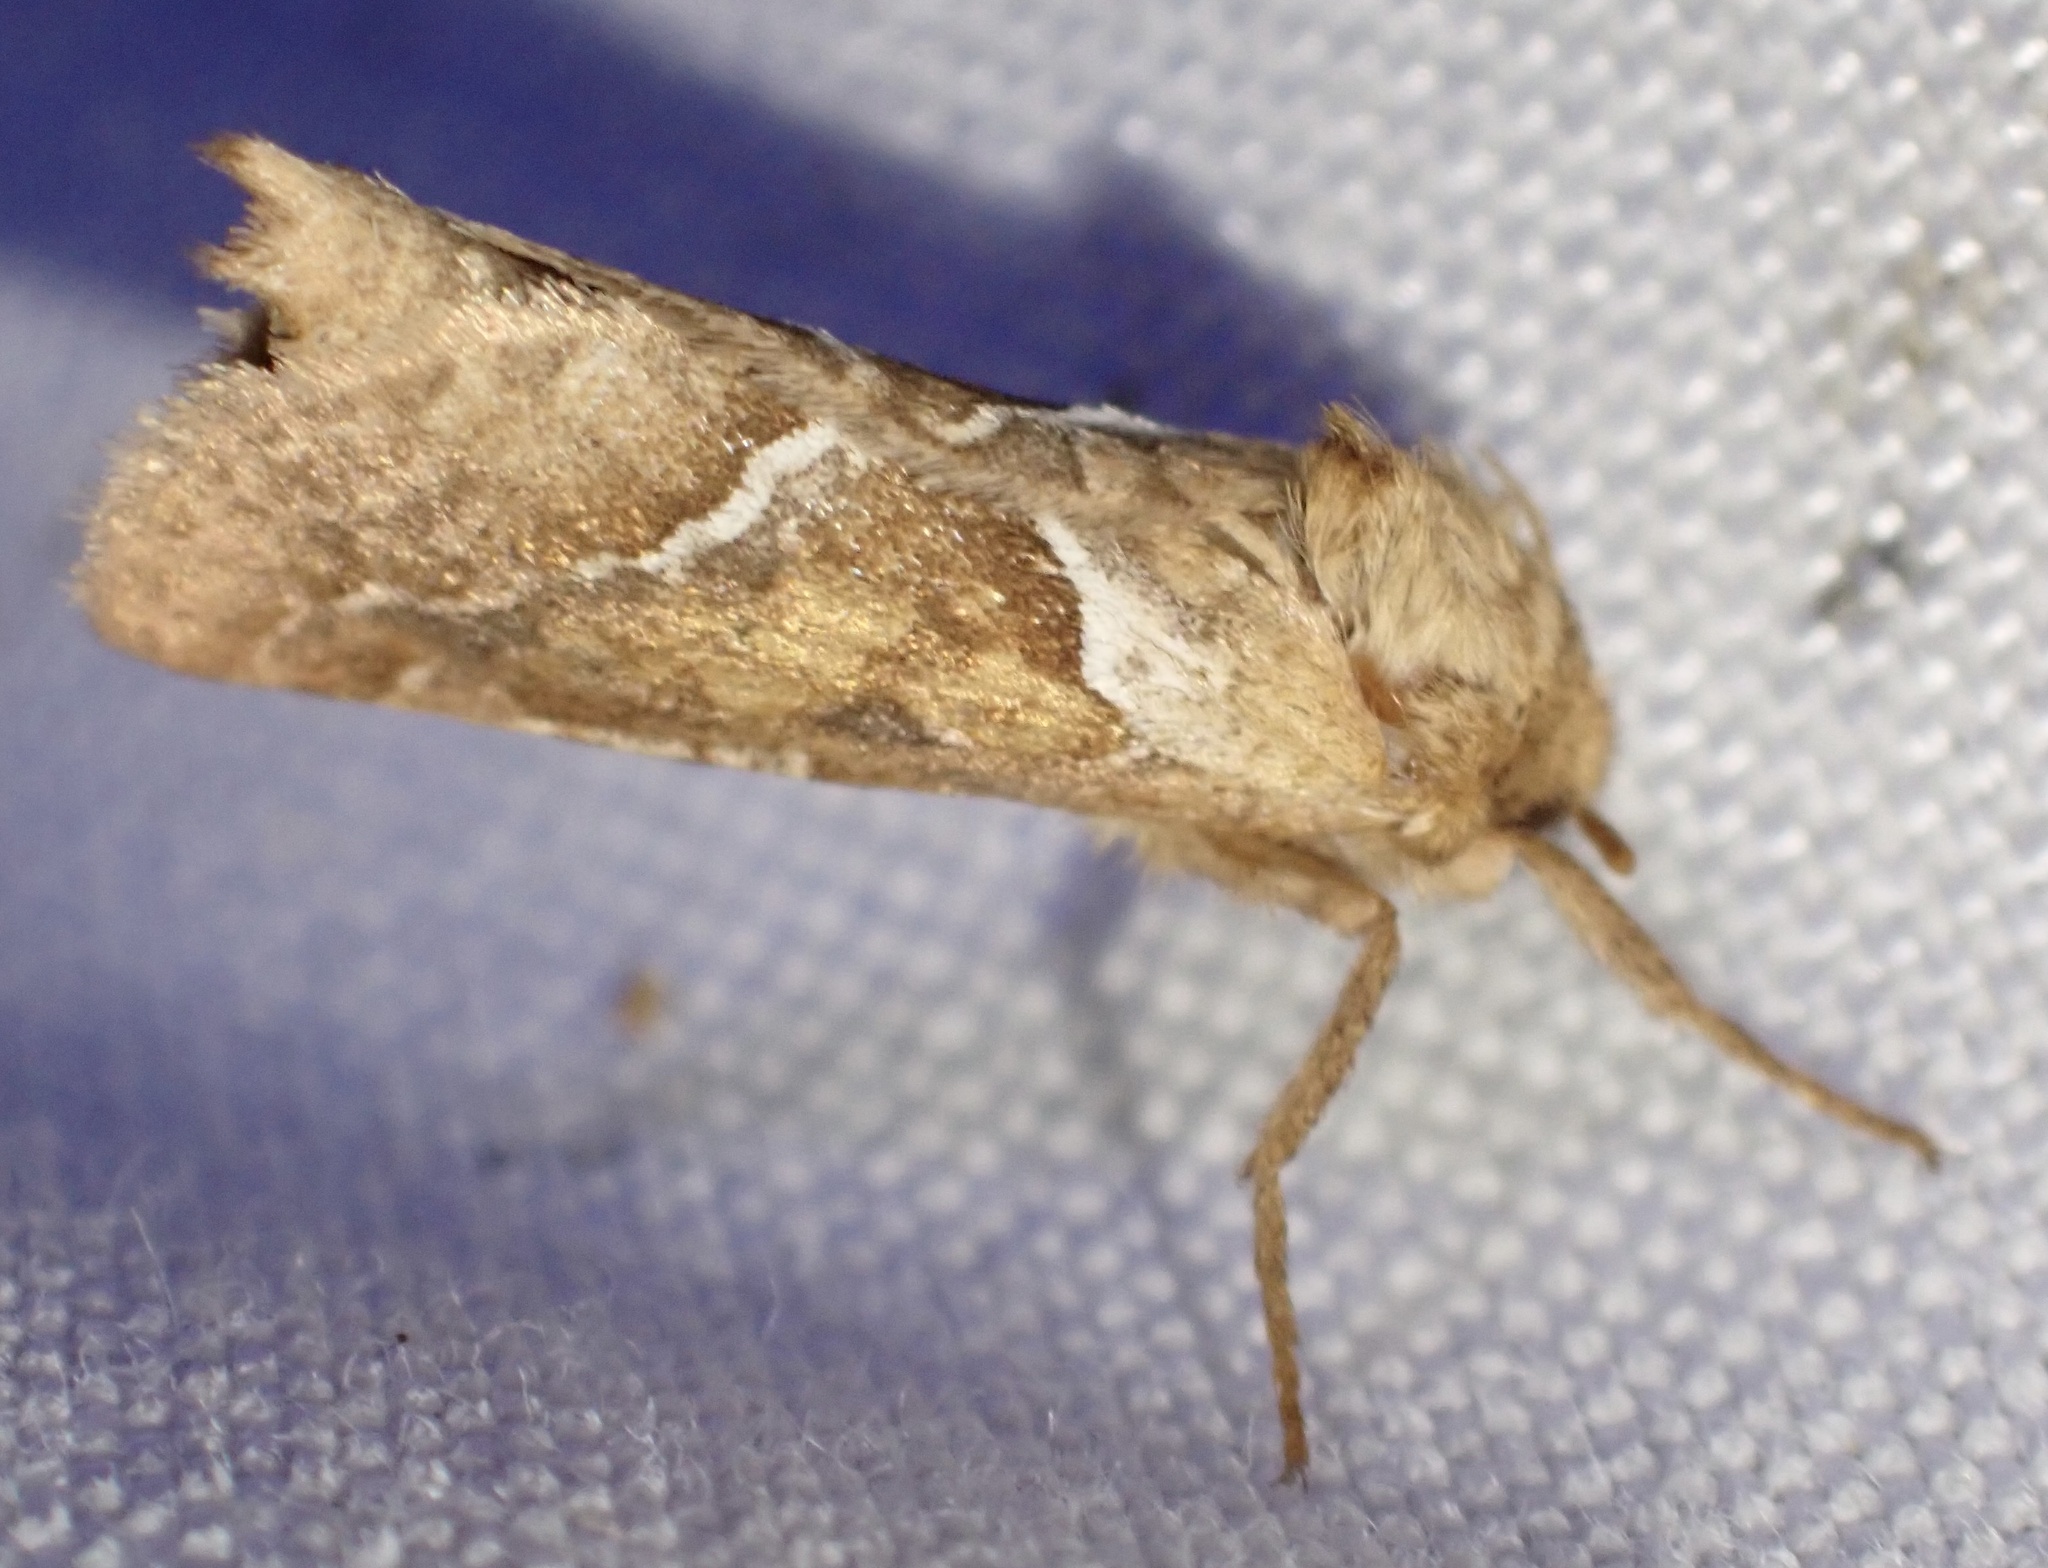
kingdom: Animalia
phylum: Arthropoda
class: Insecta
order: Lepidoptera
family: Hepialidae
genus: Triodia
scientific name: Triodia sylvina
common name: Orange swift
